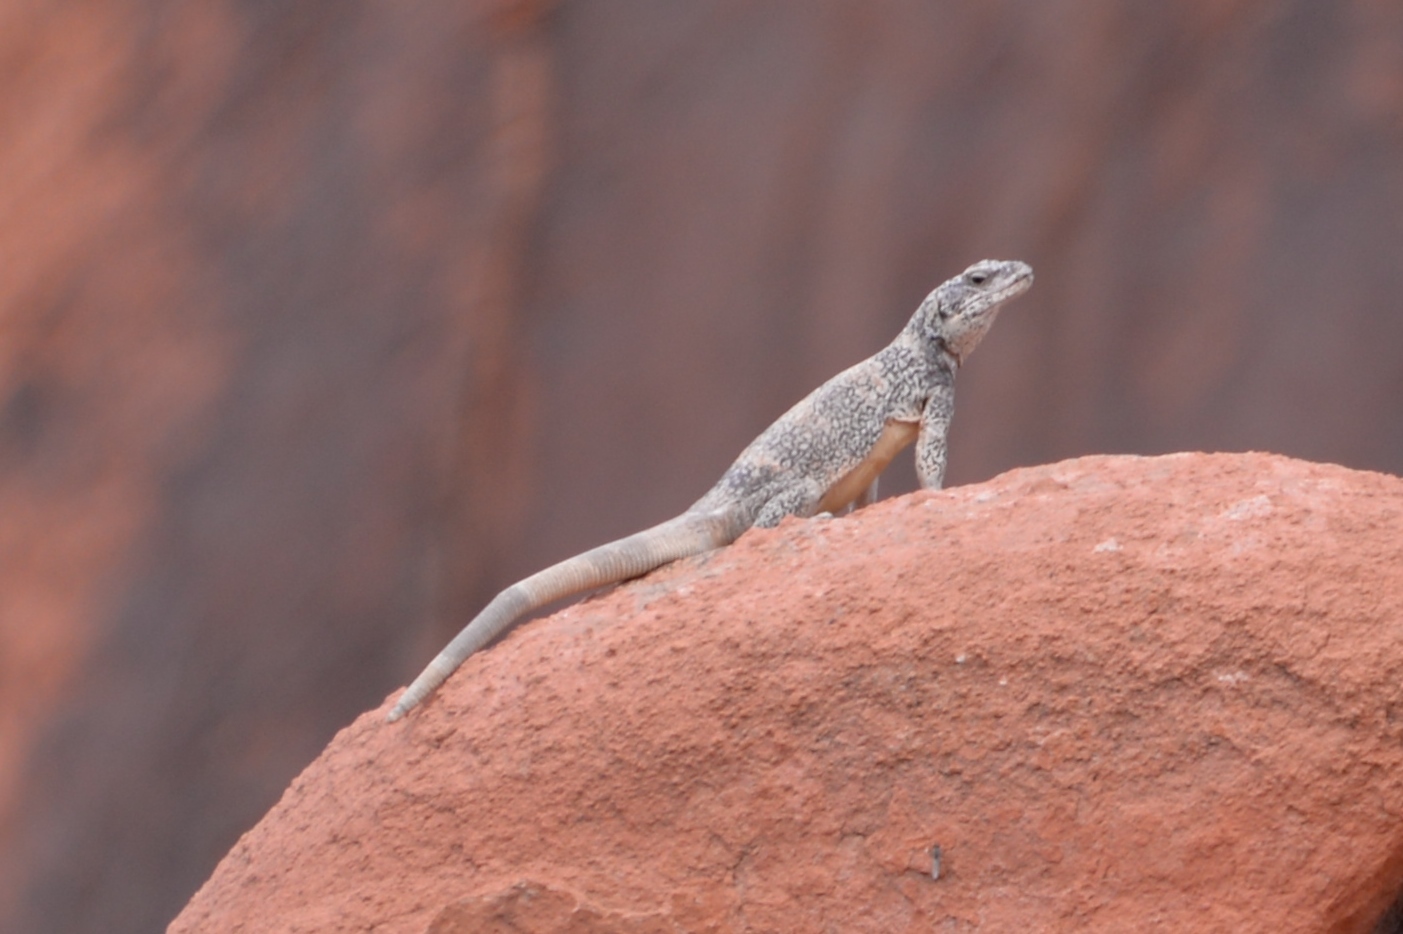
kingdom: Animalia
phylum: Chordata
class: Squamata
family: Iguanidae
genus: Sauromalus
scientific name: Sauromalus ater
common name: Northern chuckwalla
